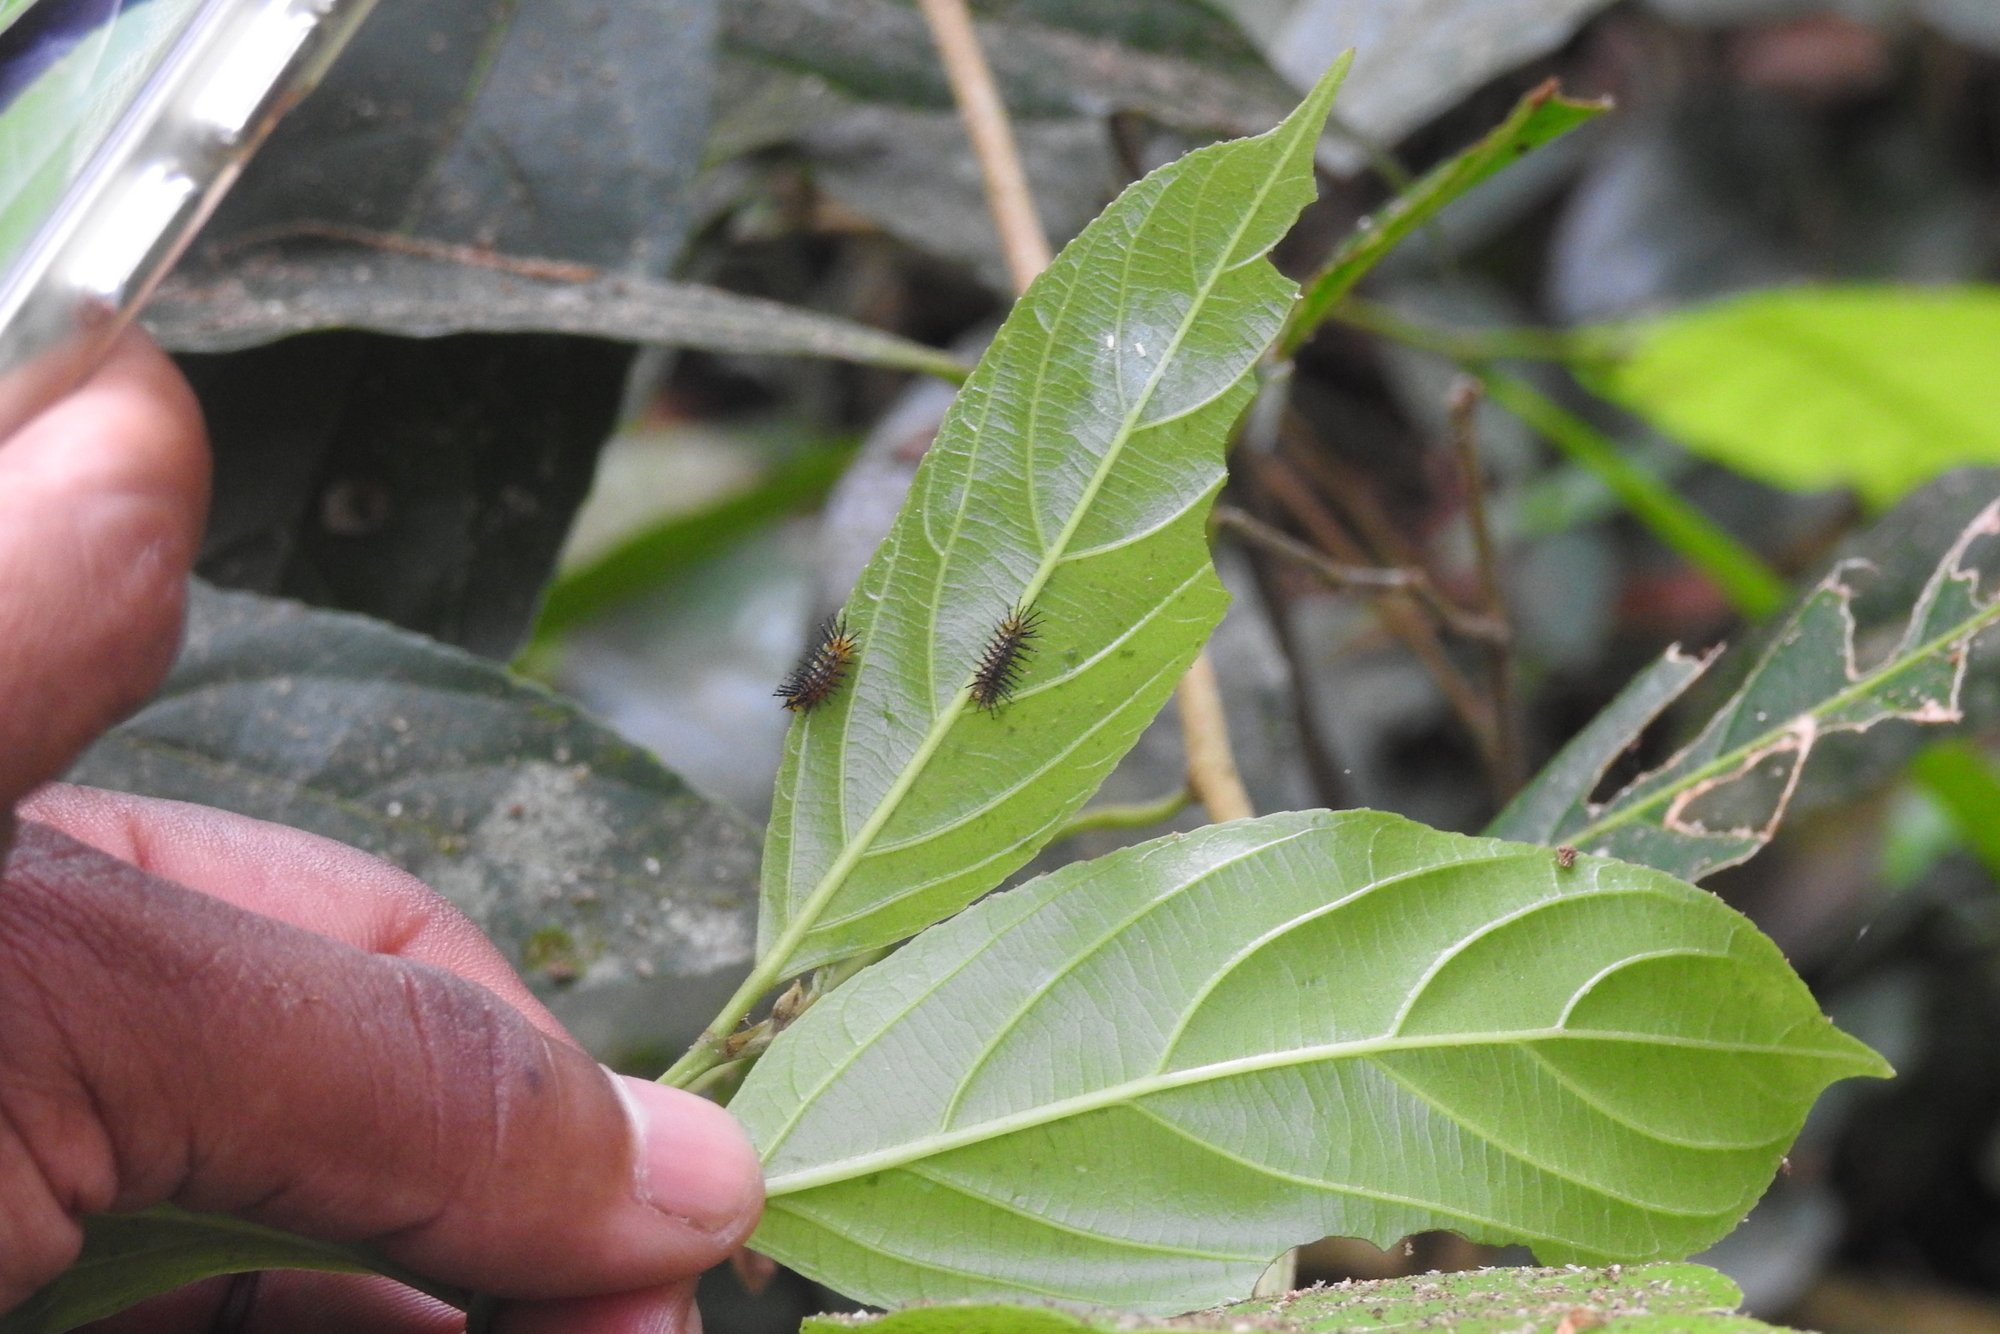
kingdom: Animalia
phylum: Arthropoda
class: Insecta
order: Lepidoptera
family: Nymphalidae
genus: Cirrochroa
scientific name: Cirrochroa thais
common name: Tamil yeoman
